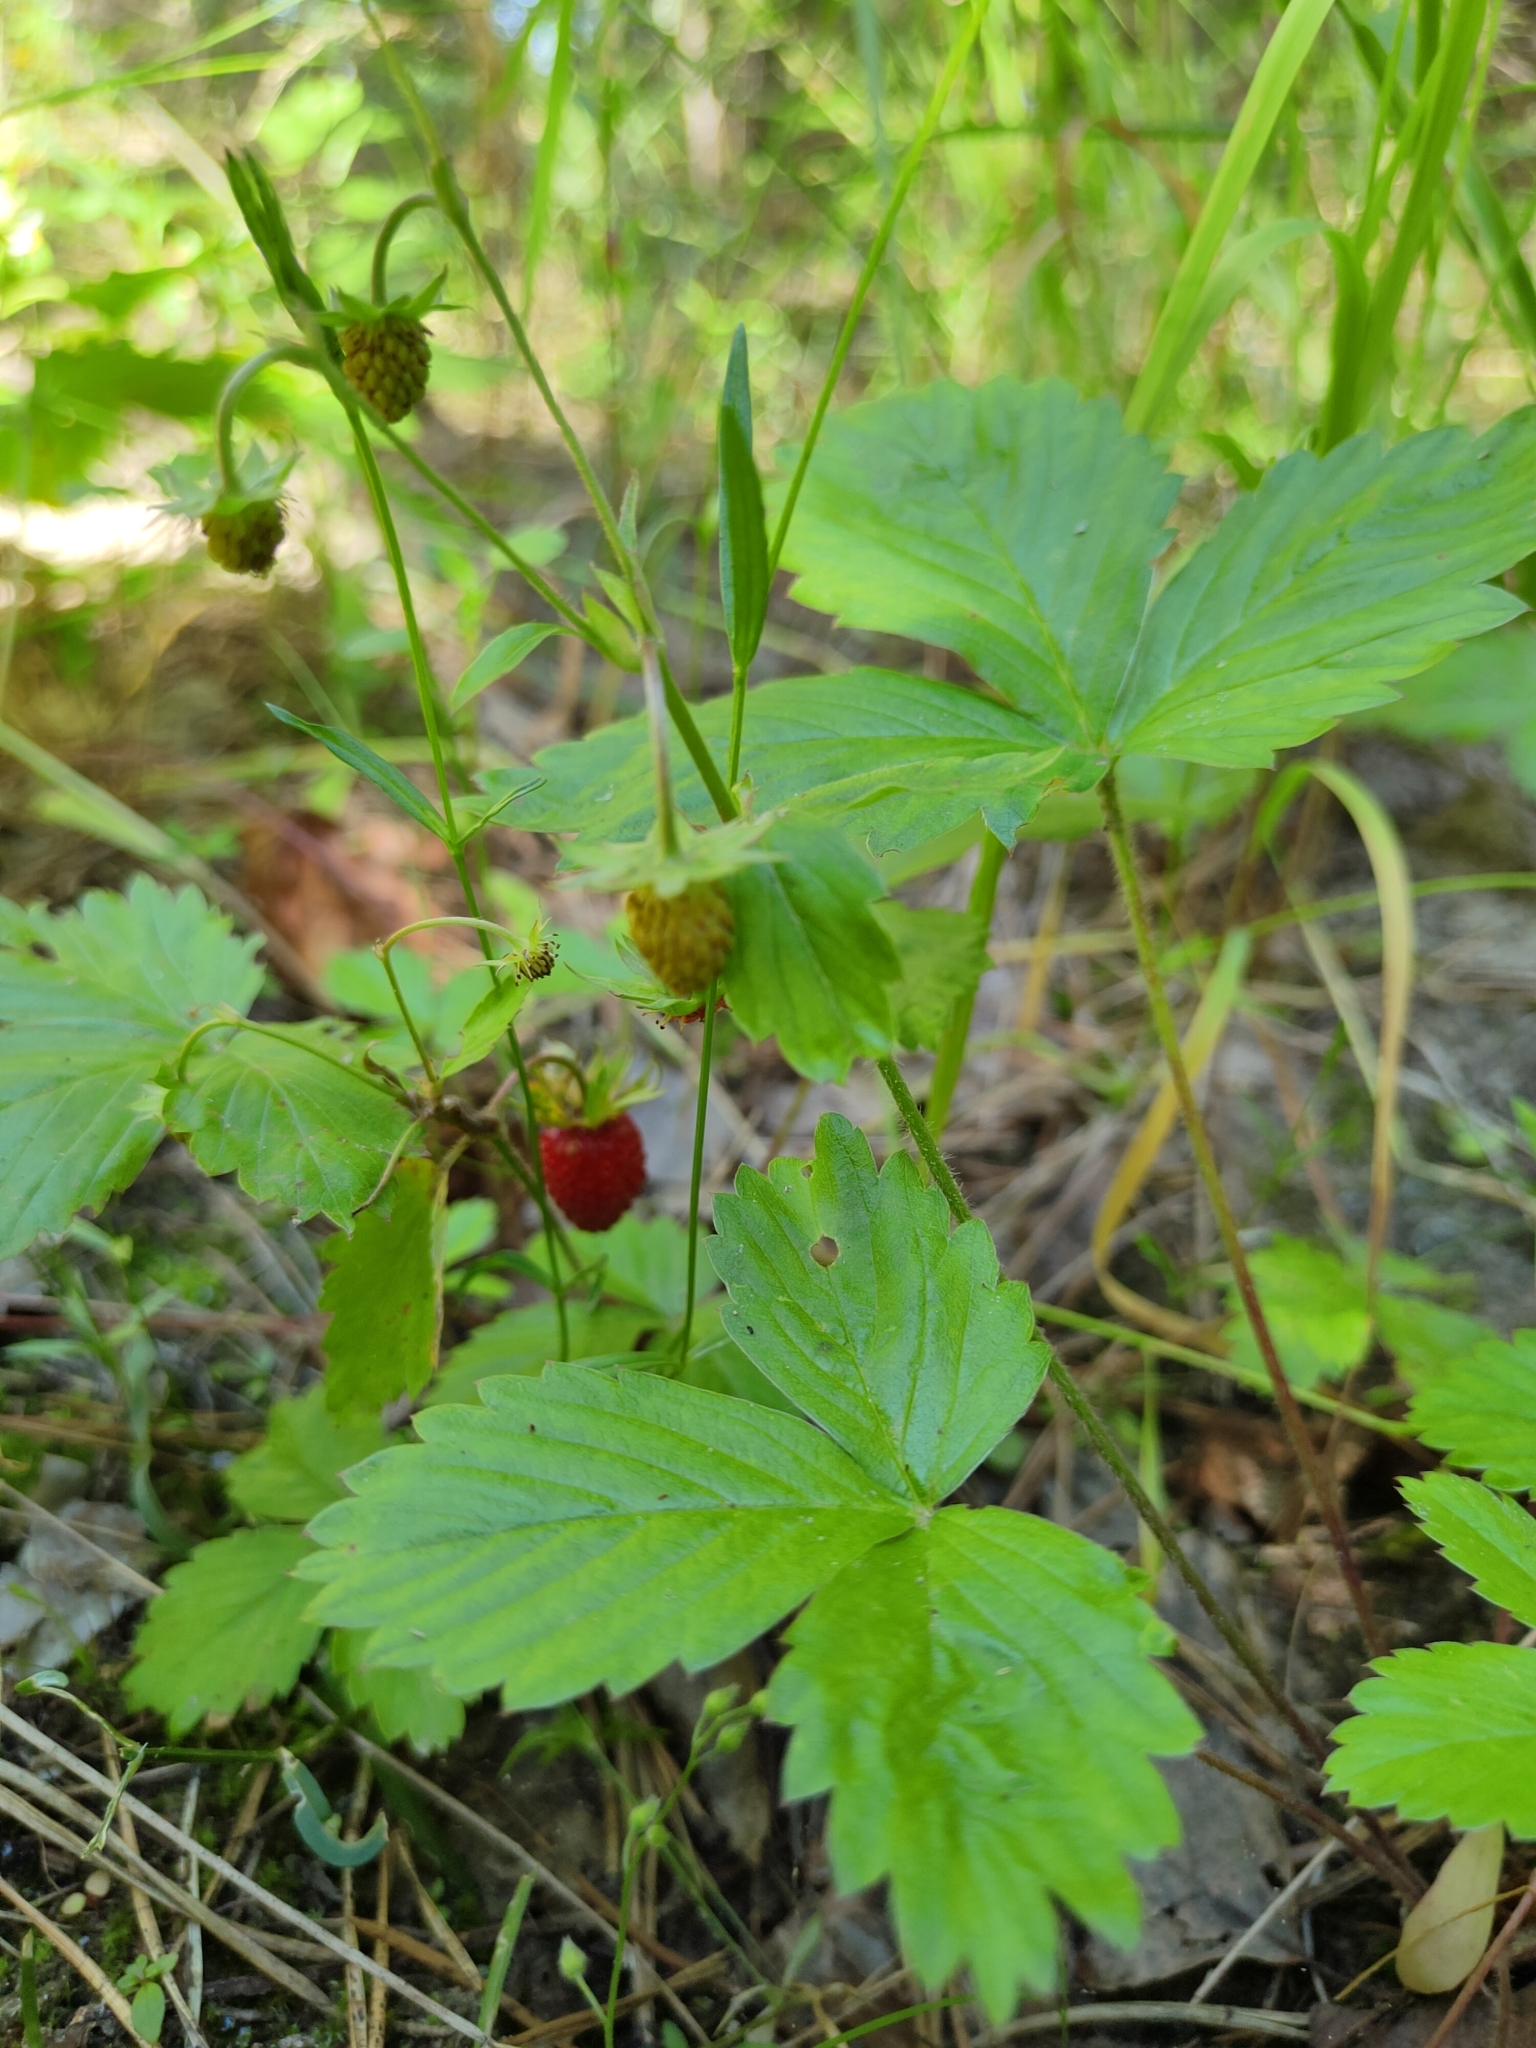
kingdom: Plantae
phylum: Tracheophyta
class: Magnoliopsida
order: Rosales
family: Rosaceae
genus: Fragaria
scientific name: Fragaria vesca
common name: Wild strawberry
